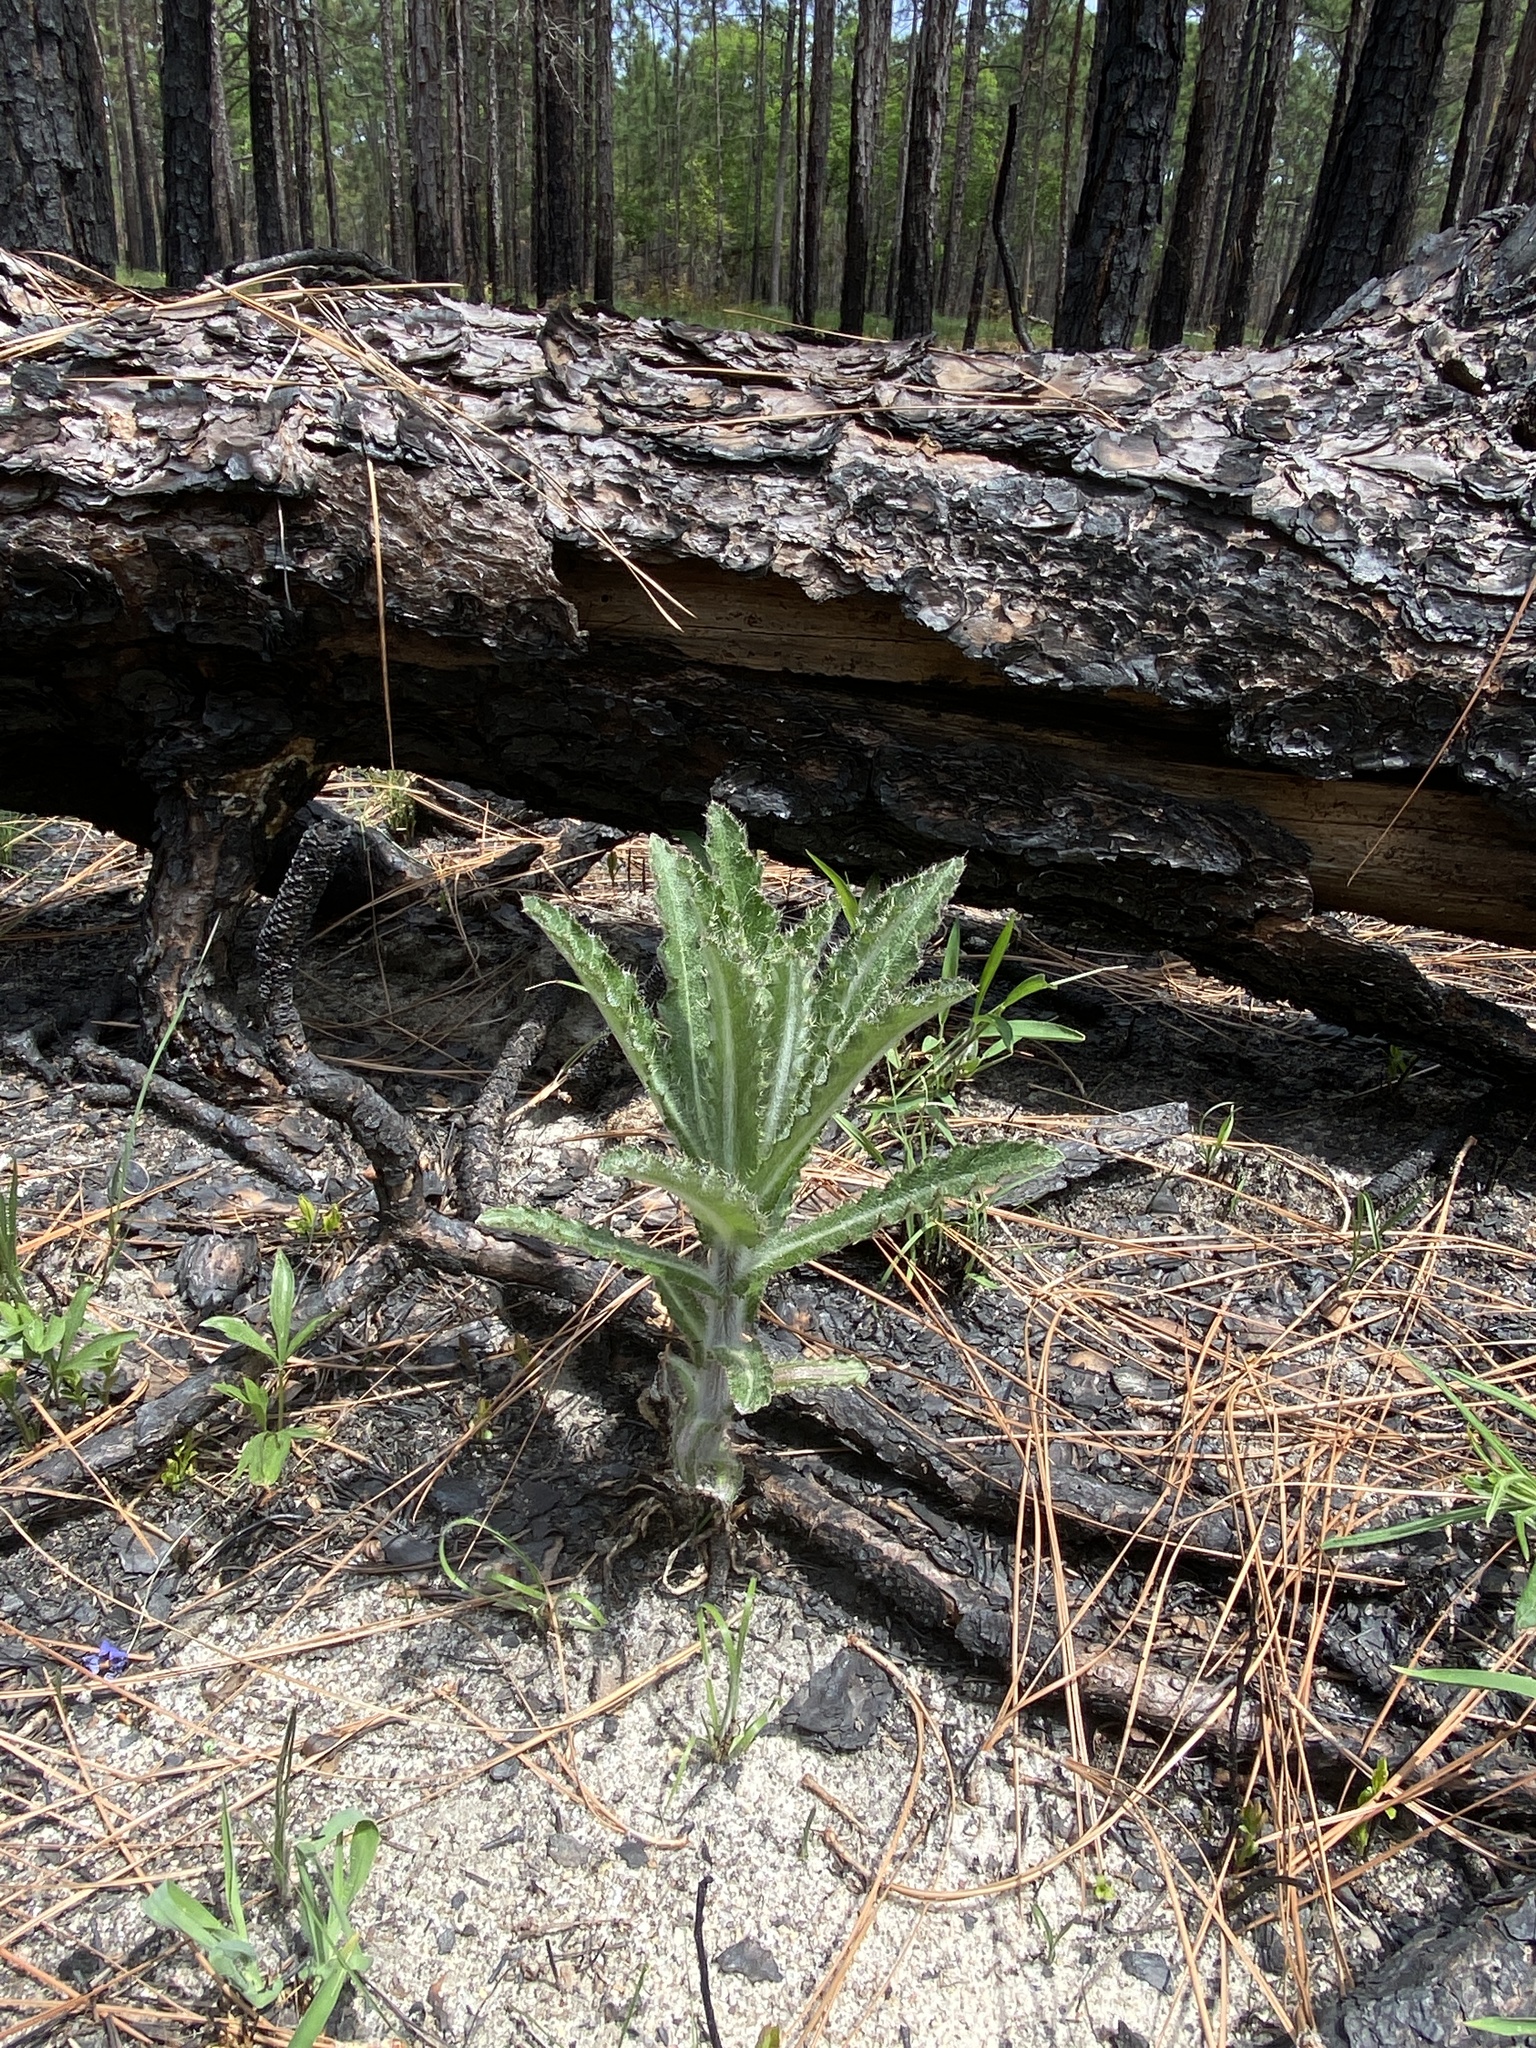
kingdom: Plantae
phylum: Tracheophyta
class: Magnoliopsida
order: Asterales
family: Asteraceae
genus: Cirsium
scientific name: Cirsium repandum
